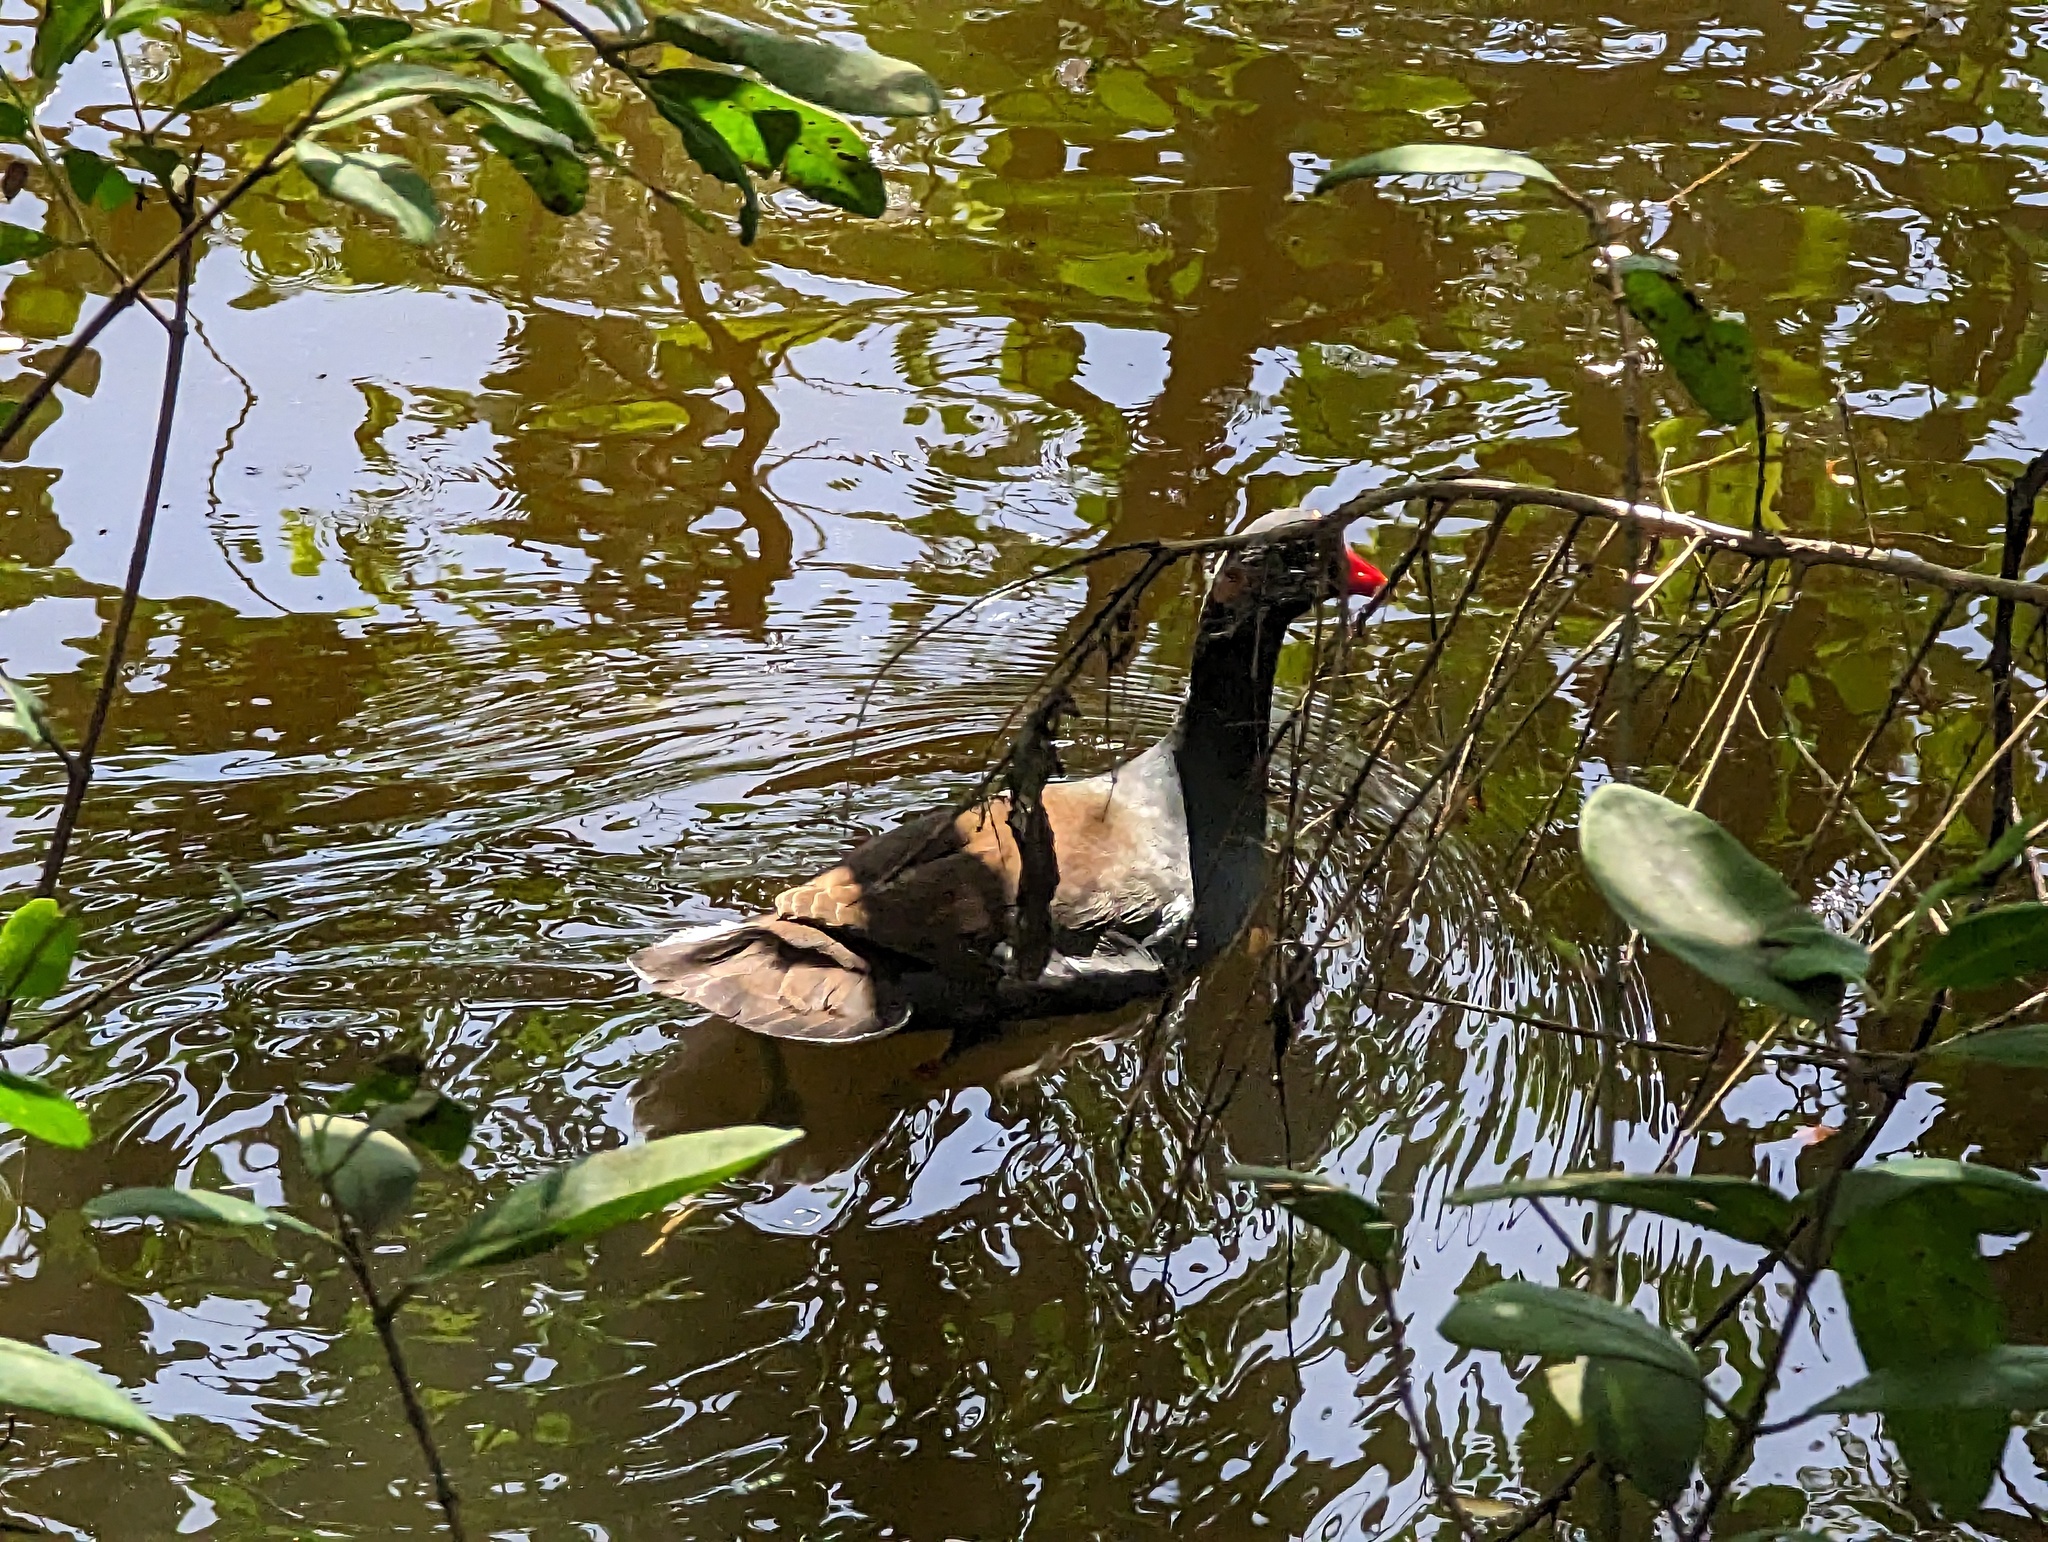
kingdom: Animalia
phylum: Chordata
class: Aves
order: Gruiformes
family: Rallidae
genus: Gallinula
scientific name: Gallinula chloropus
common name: Common moorhen
